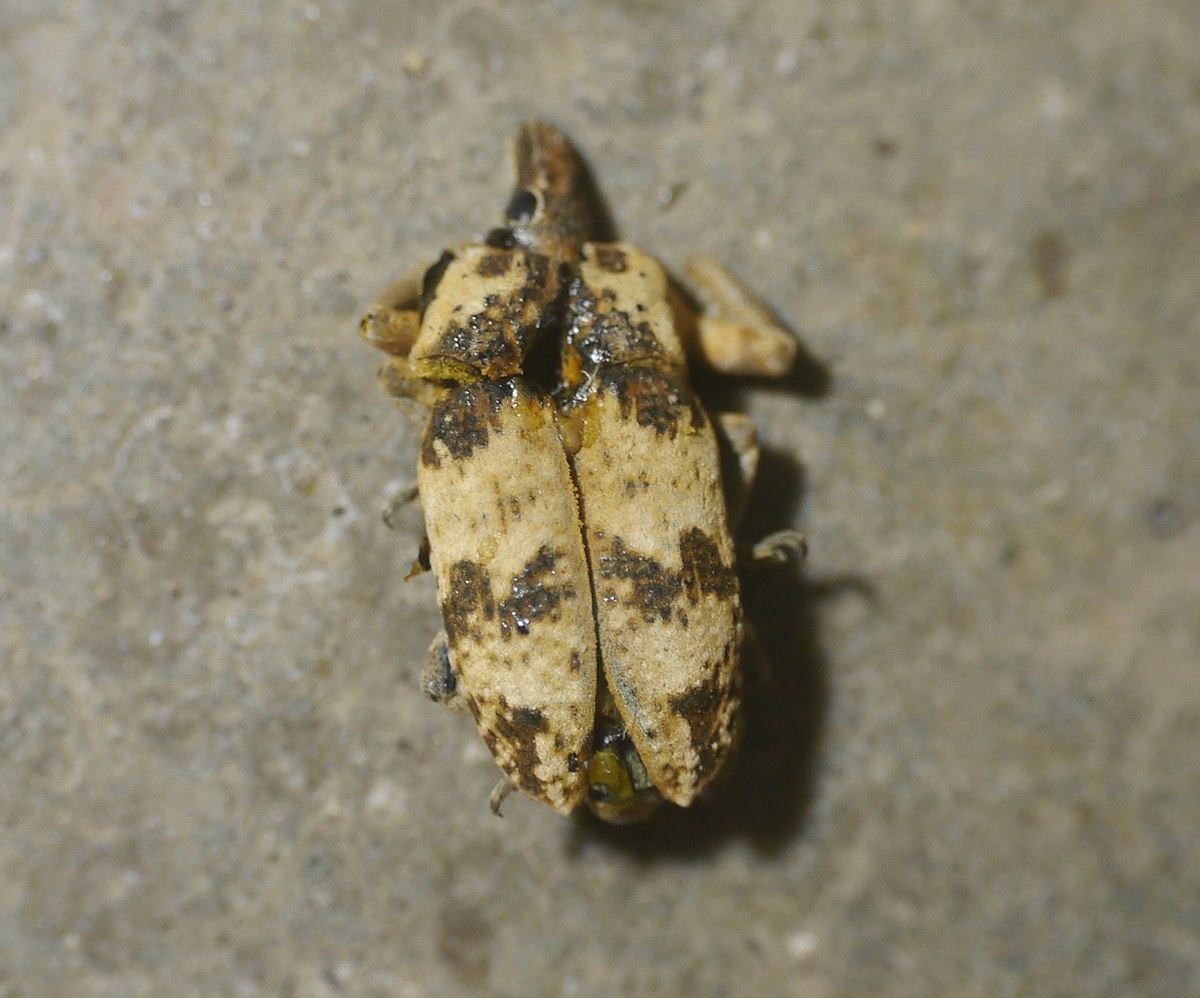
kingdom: Animalia
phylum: Arthropoda
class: Insecta
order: Coleoptera
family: Curculionidae
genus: Bothynoderes
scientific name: Bothynoderes affinis
